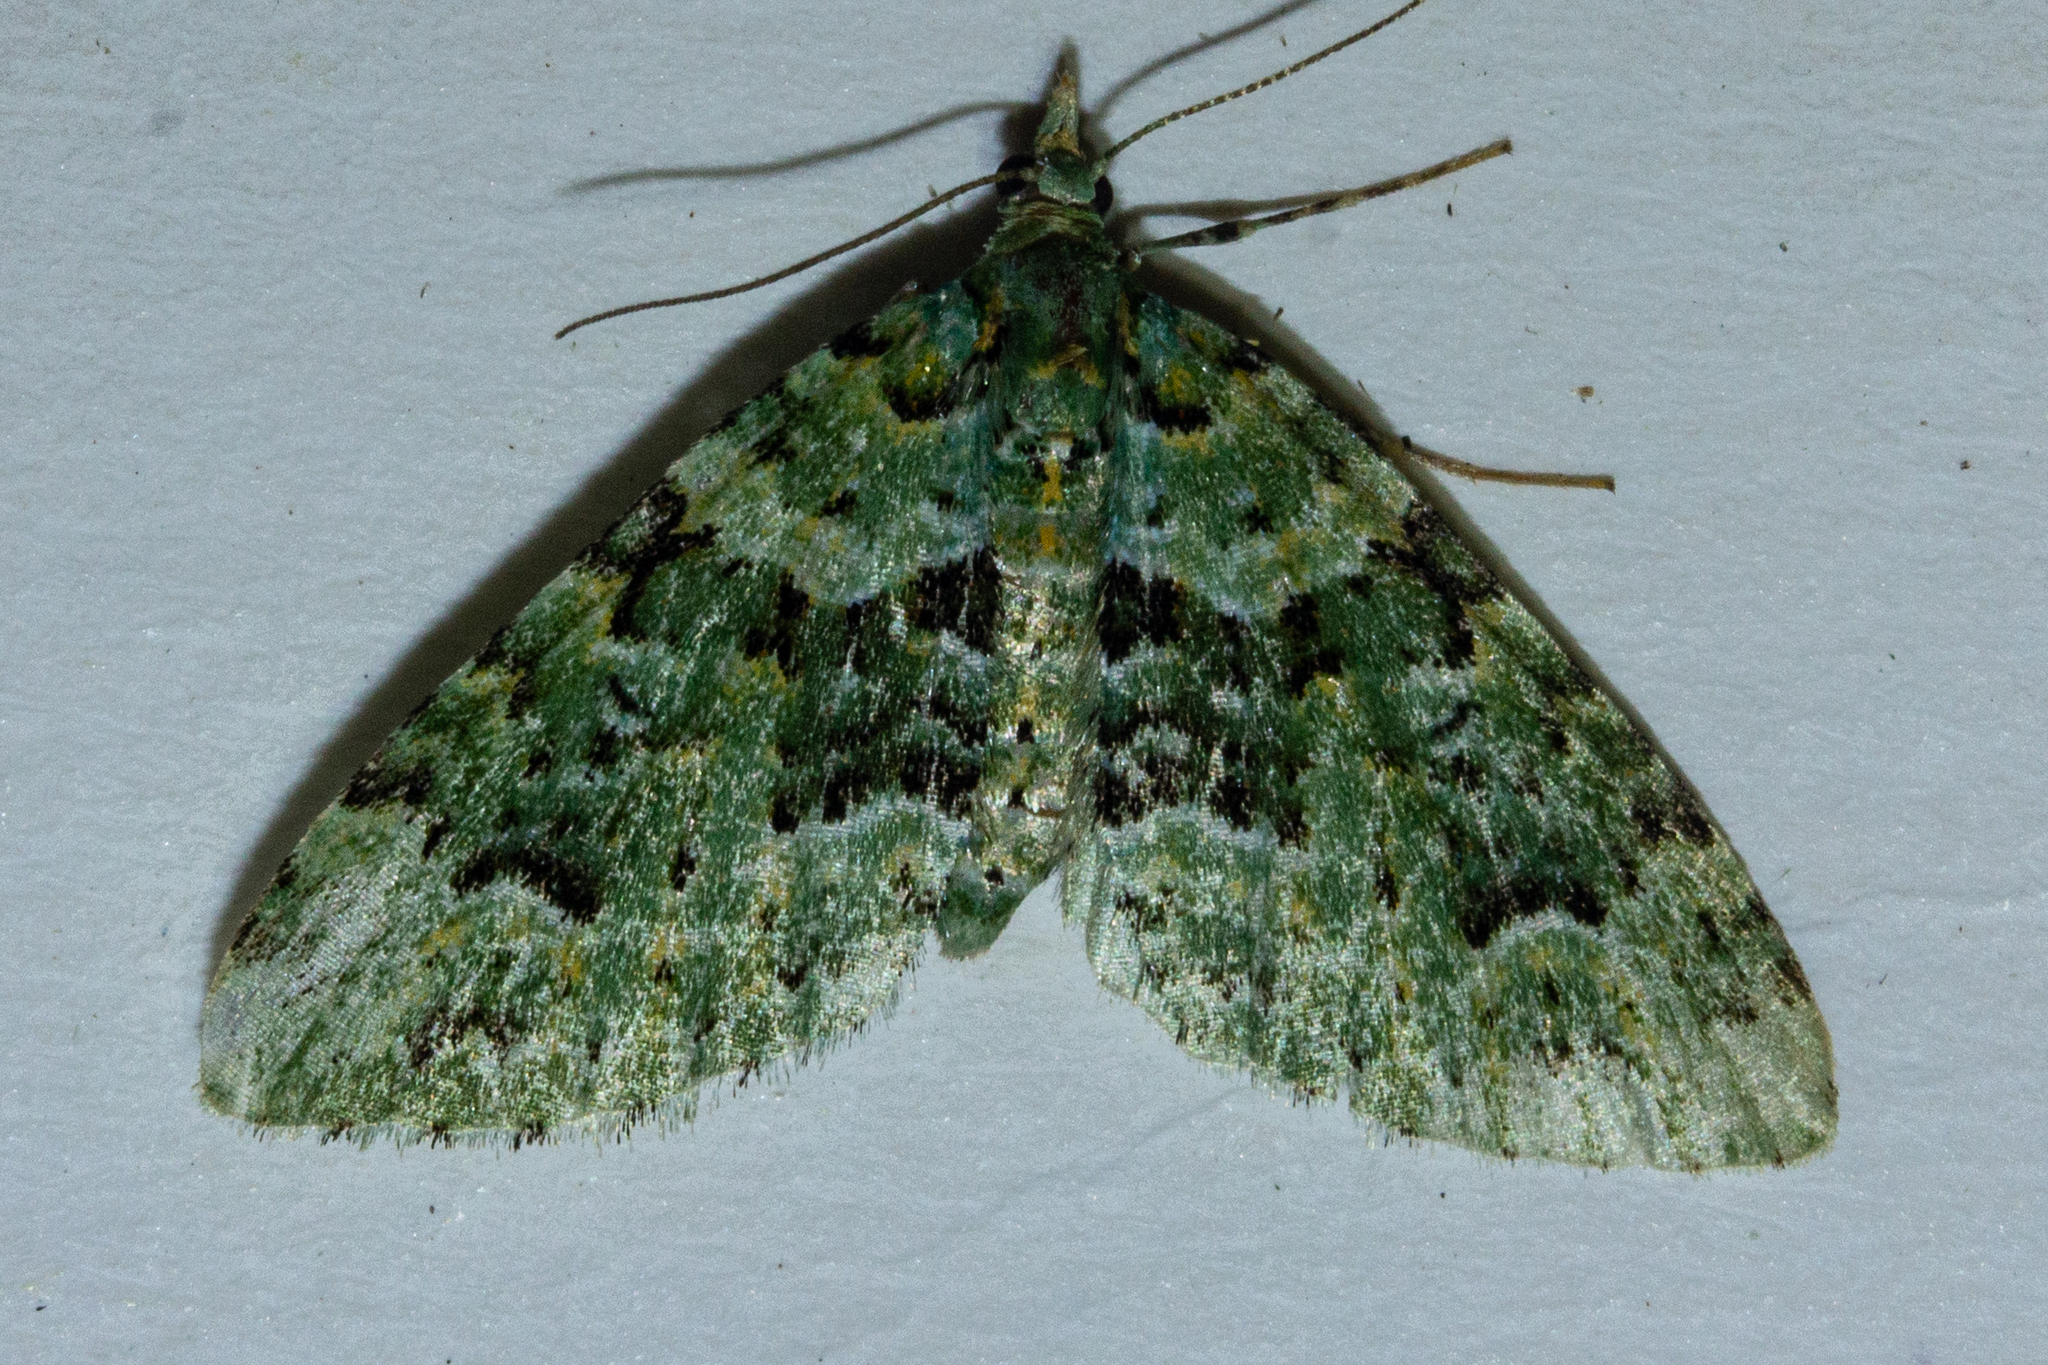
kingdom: Animalia
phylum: Arthropoda
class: Insecta
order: Lepidoptera
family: Geometridae
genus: Pasiphila
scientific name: Pasiphila melochlora
